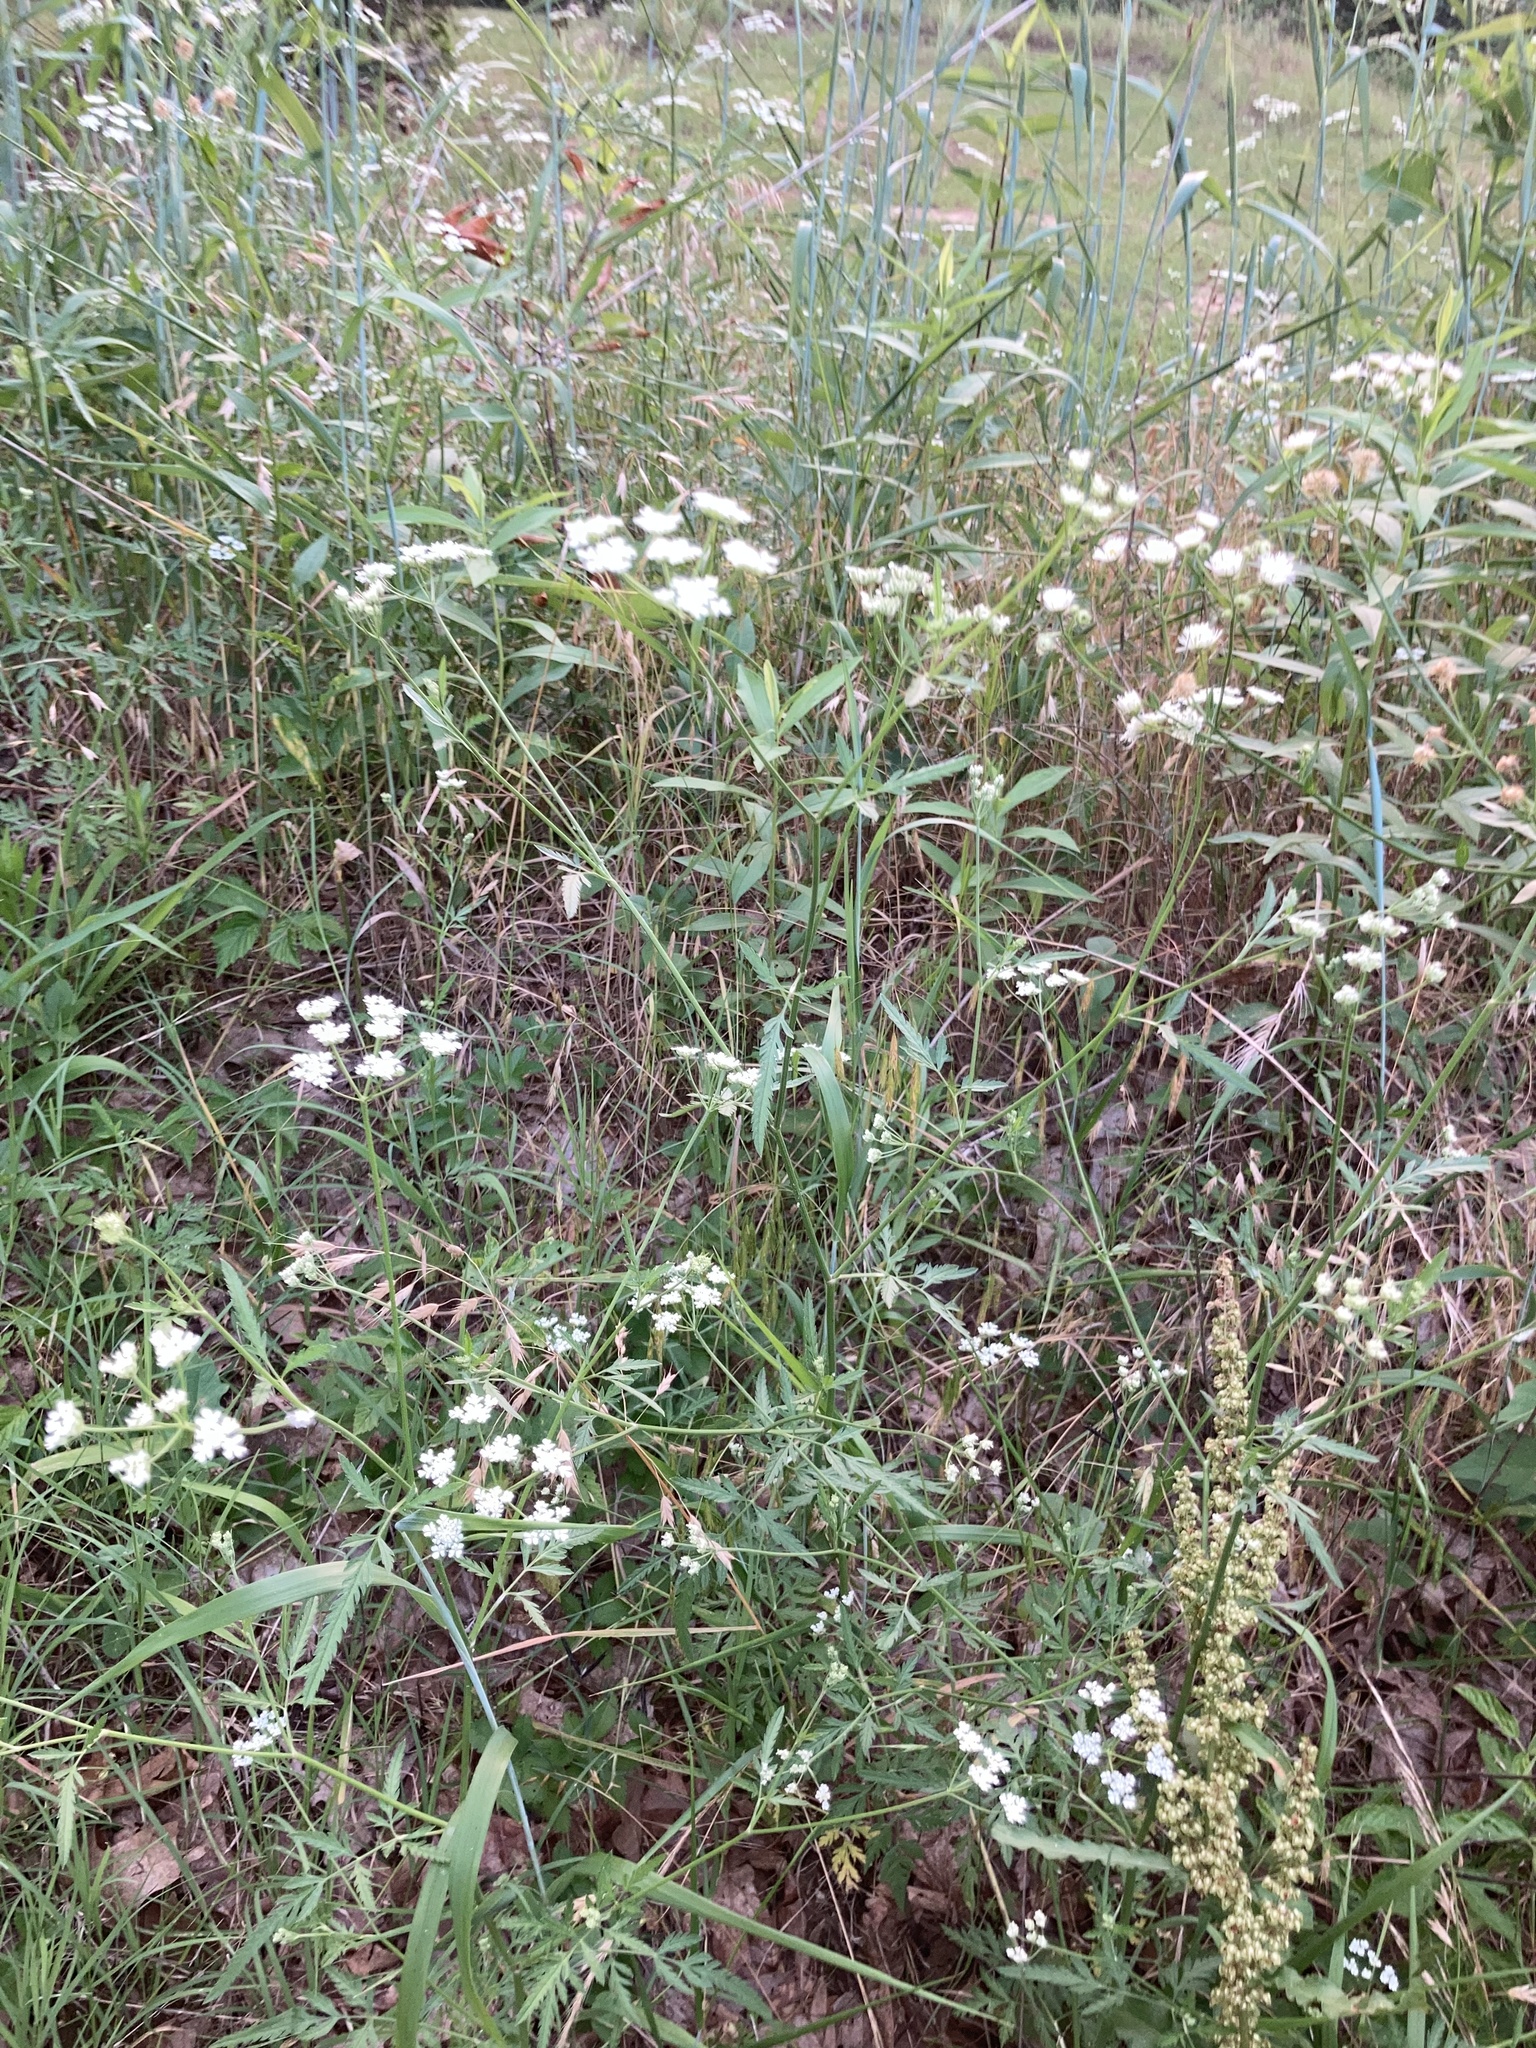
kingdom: Plantae
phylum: Tracheophyta
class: Magnoliopsida
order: Apiales
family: Apiaceae
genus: Torilis
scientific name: Torilis arvensis
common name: Spreading hedge-parsley
